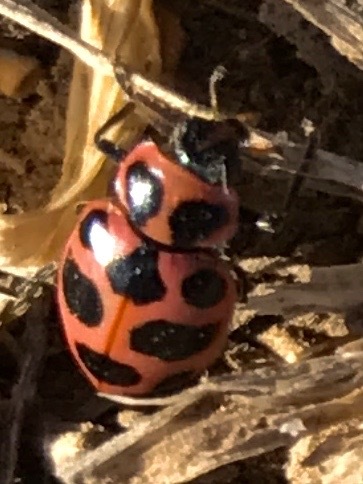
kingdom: Animalia
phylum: Arthropoda
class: Insecta
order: Coleoptera
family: Coccinellidae
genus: Coleomegilla
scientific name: Coleomegilla maculata
